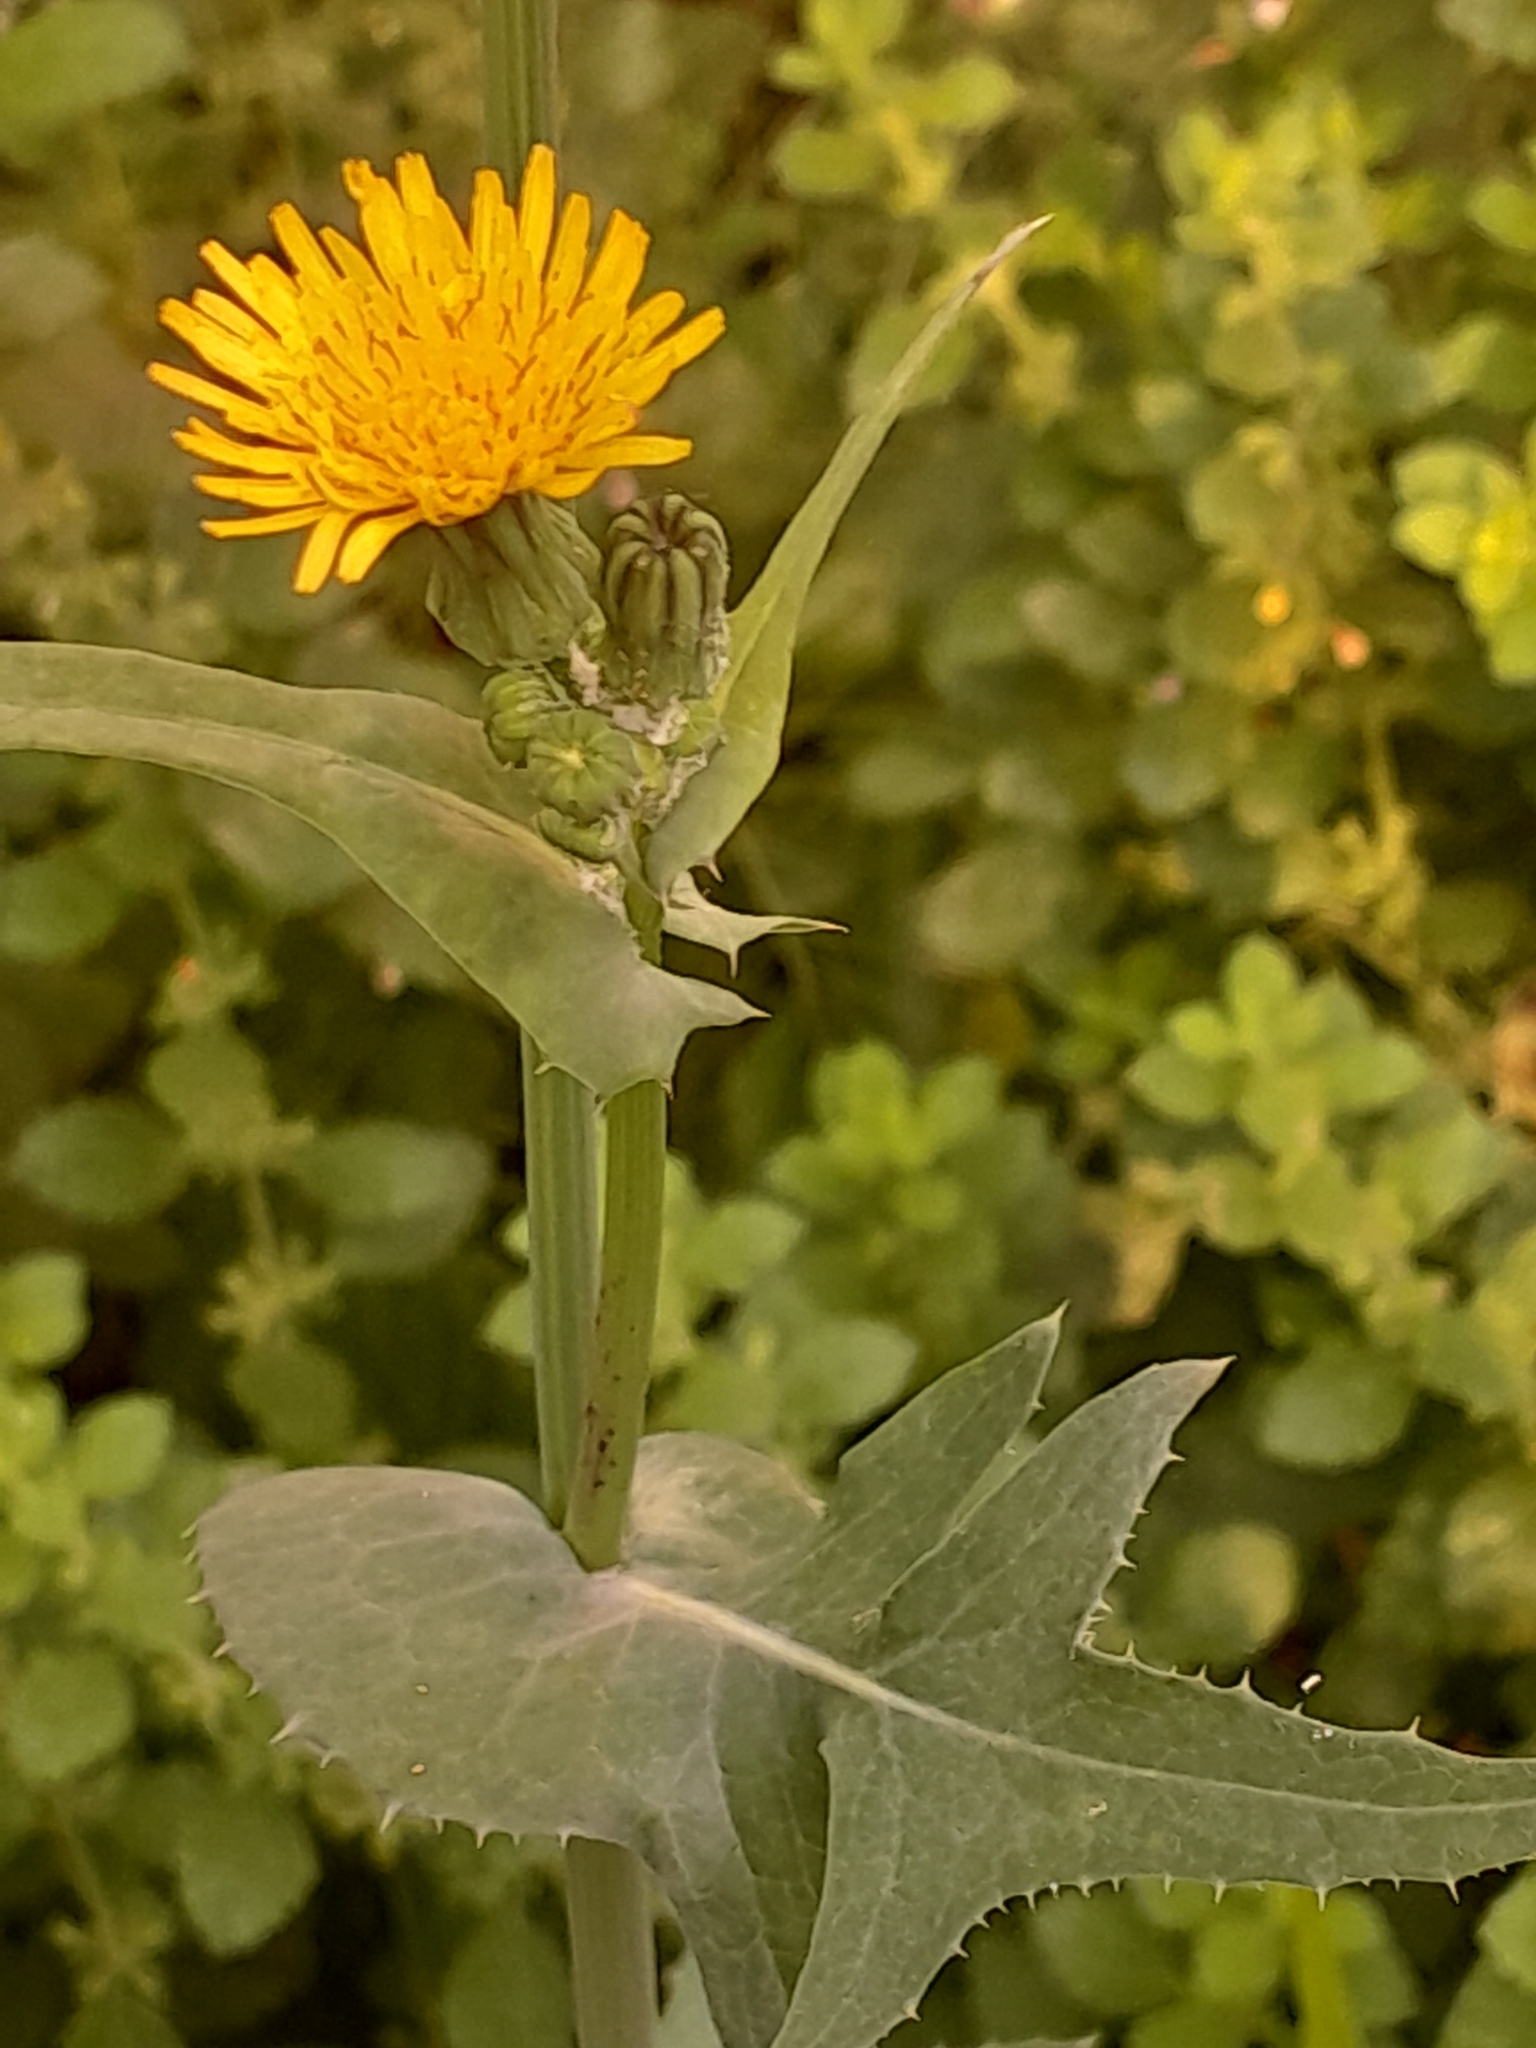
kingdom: Plantae
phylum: Tracheophyta
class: Magnoliopsida
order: Asterales
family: Asteraceae
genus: Sonchus
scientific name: Sonchus oleraceus
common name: Common sowthistle
